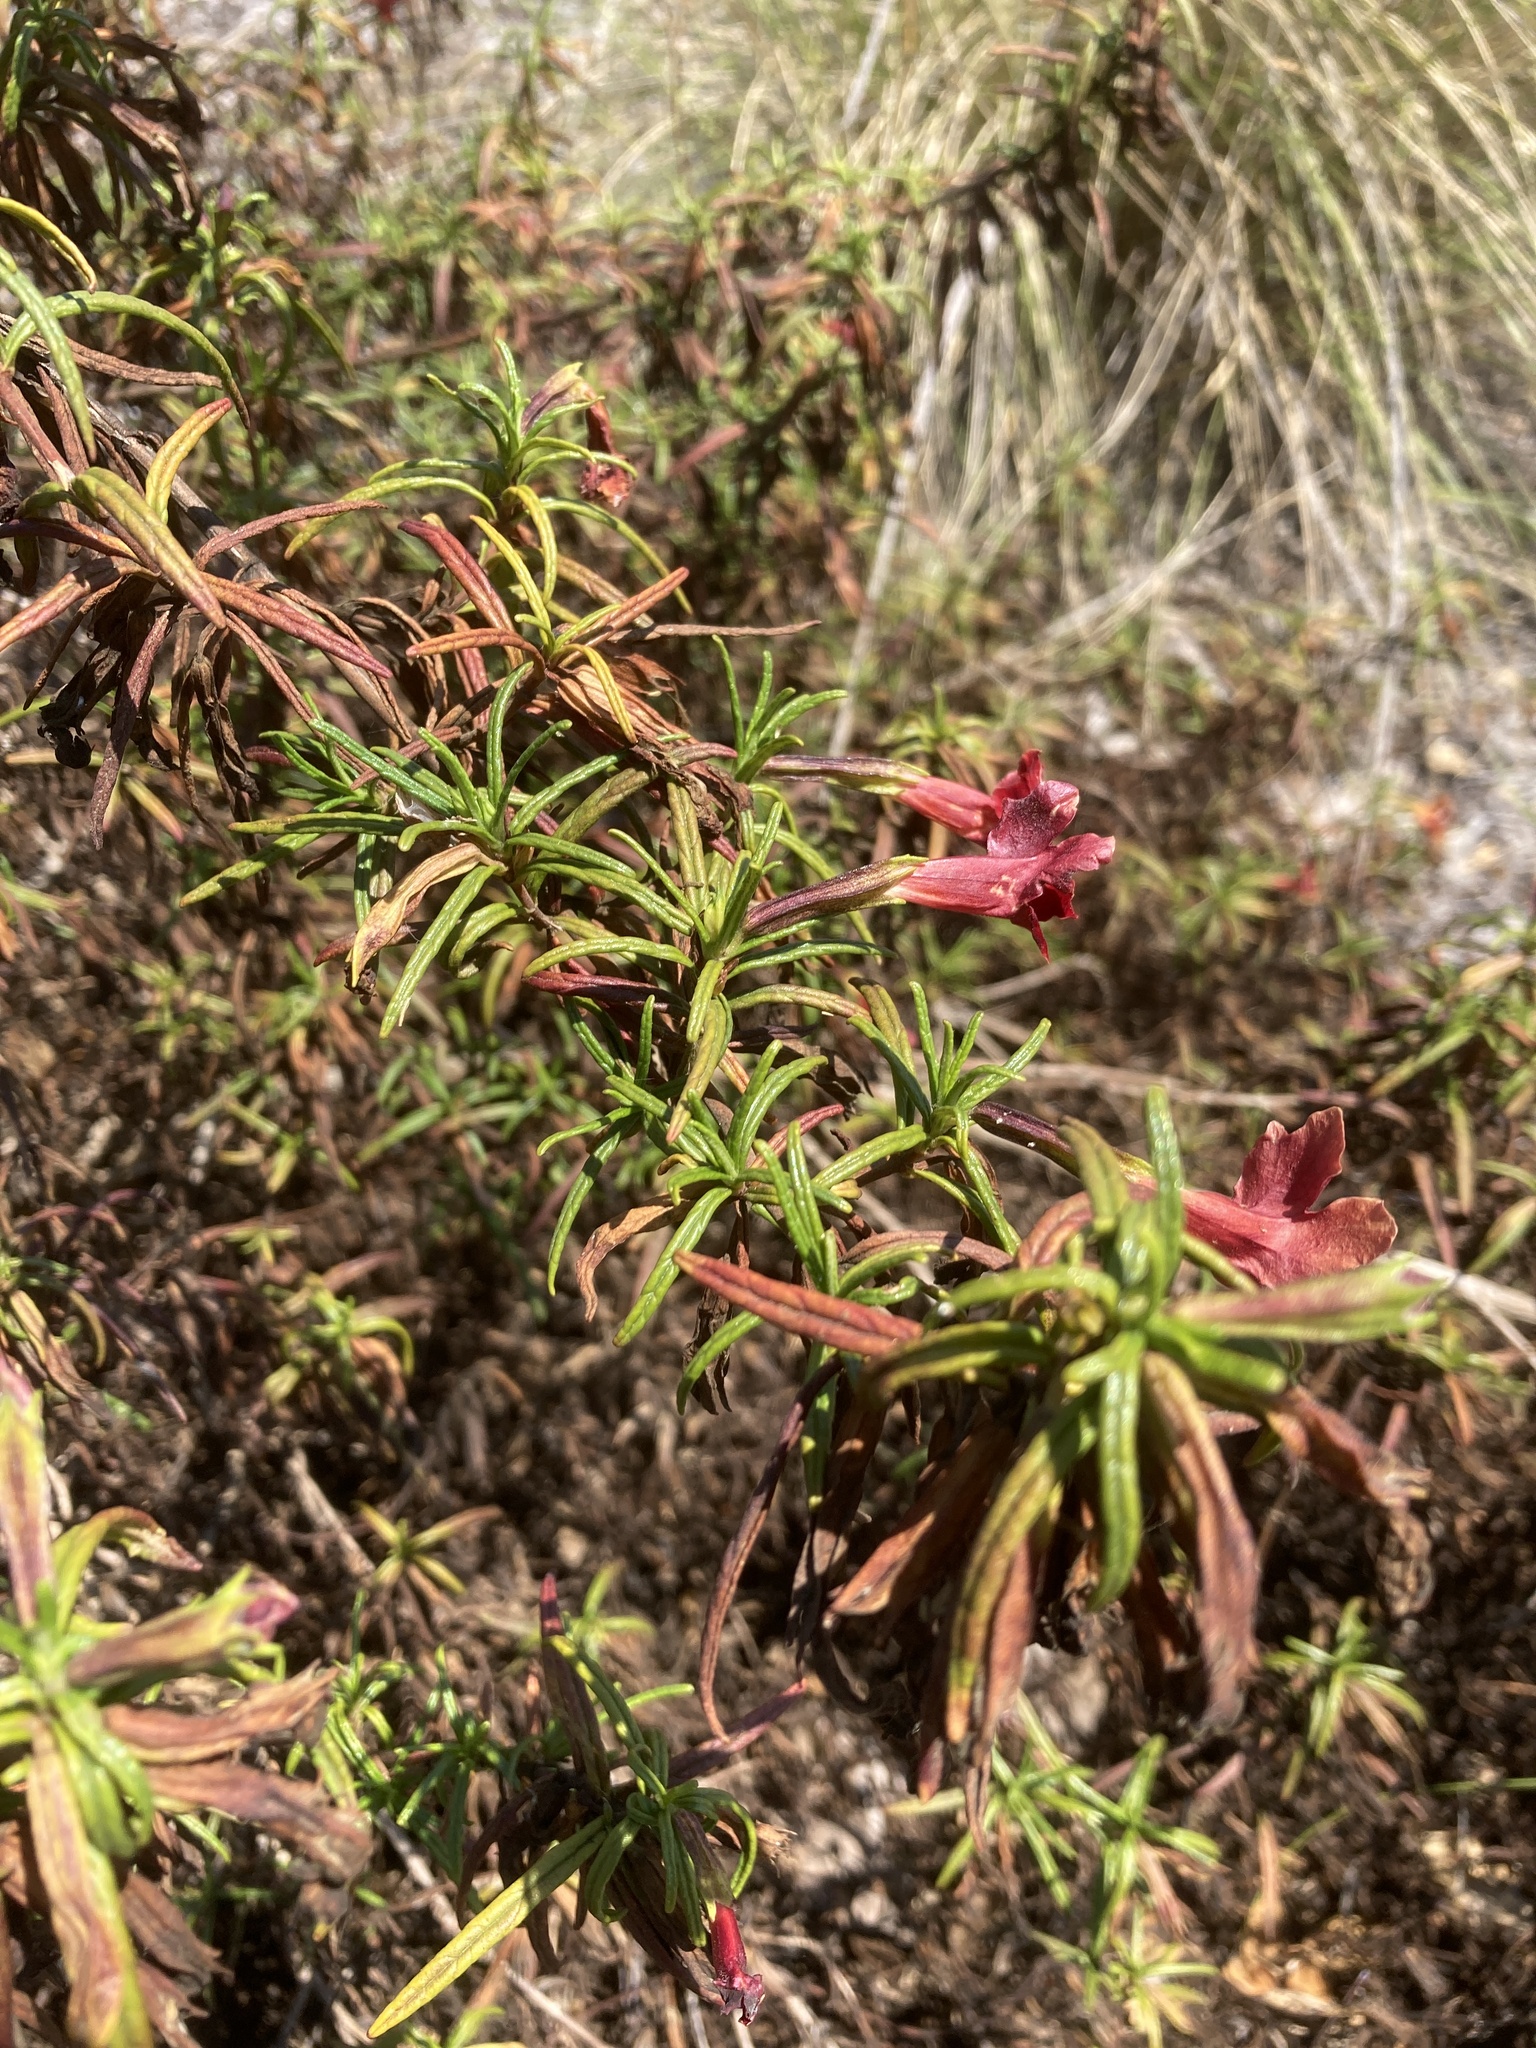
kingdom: Plantae
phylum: Tracheophyta
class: Magnoliopsida
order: Lamiales
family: Phrymaceae
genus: Diplacus
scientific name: Diplacus puniceus
